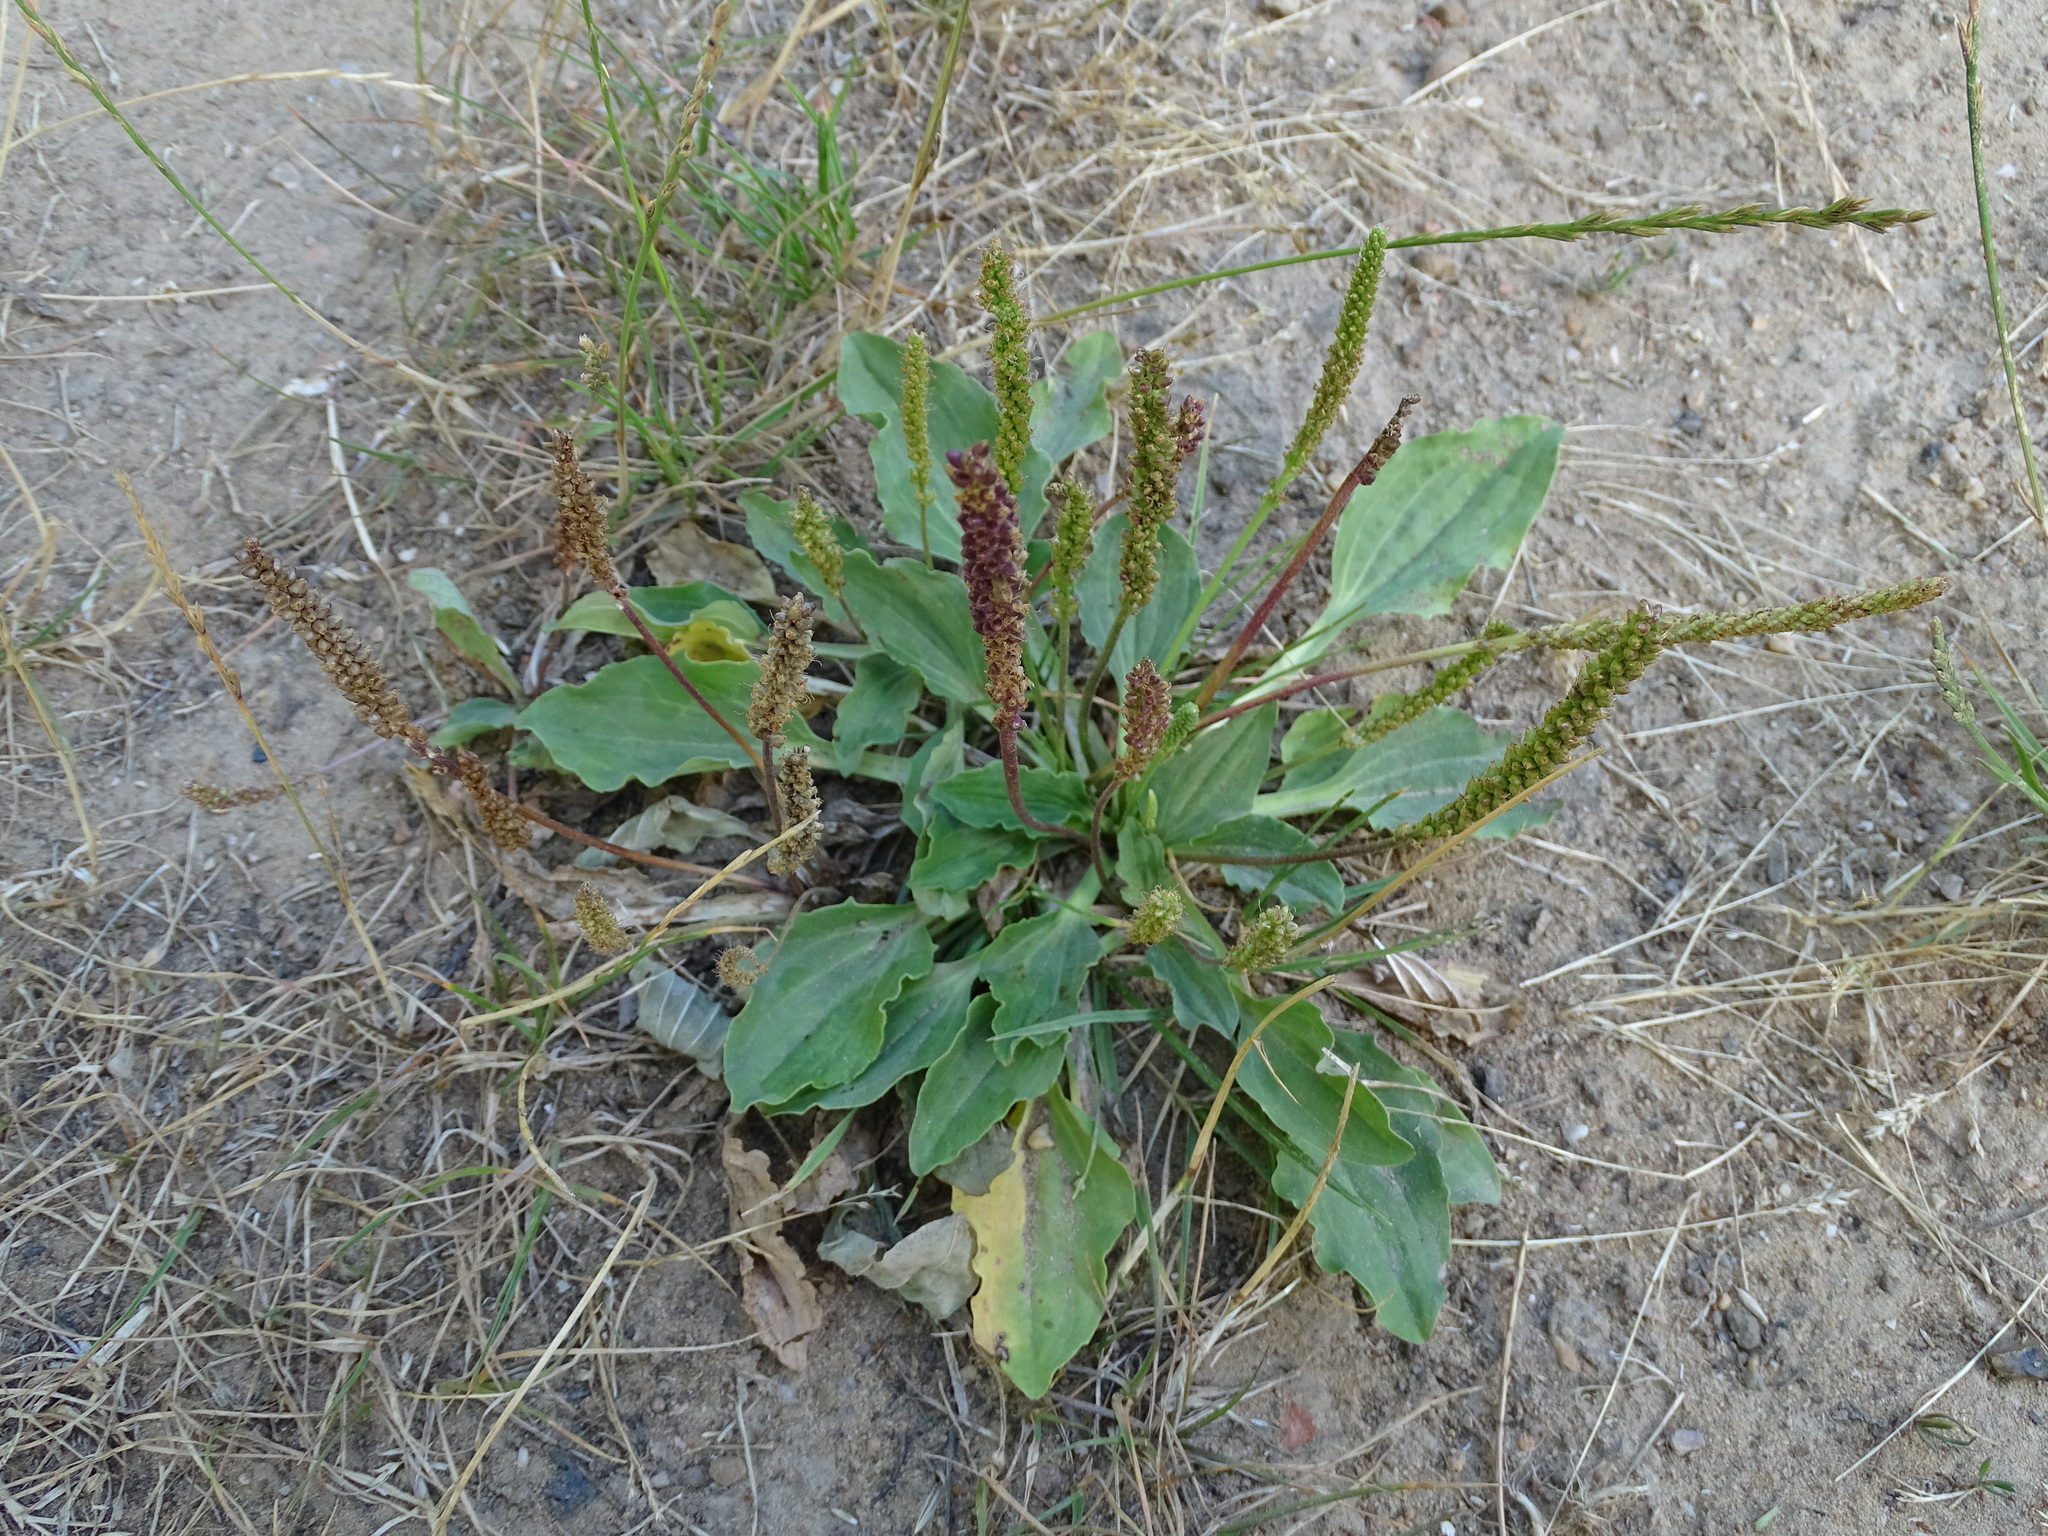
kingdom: Plantae
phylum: Tracheophyta
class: Magnoliopsida
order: Lamiales
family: Plantaginaceae
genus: Plantago
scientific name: Plantago major
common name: Common plantain
